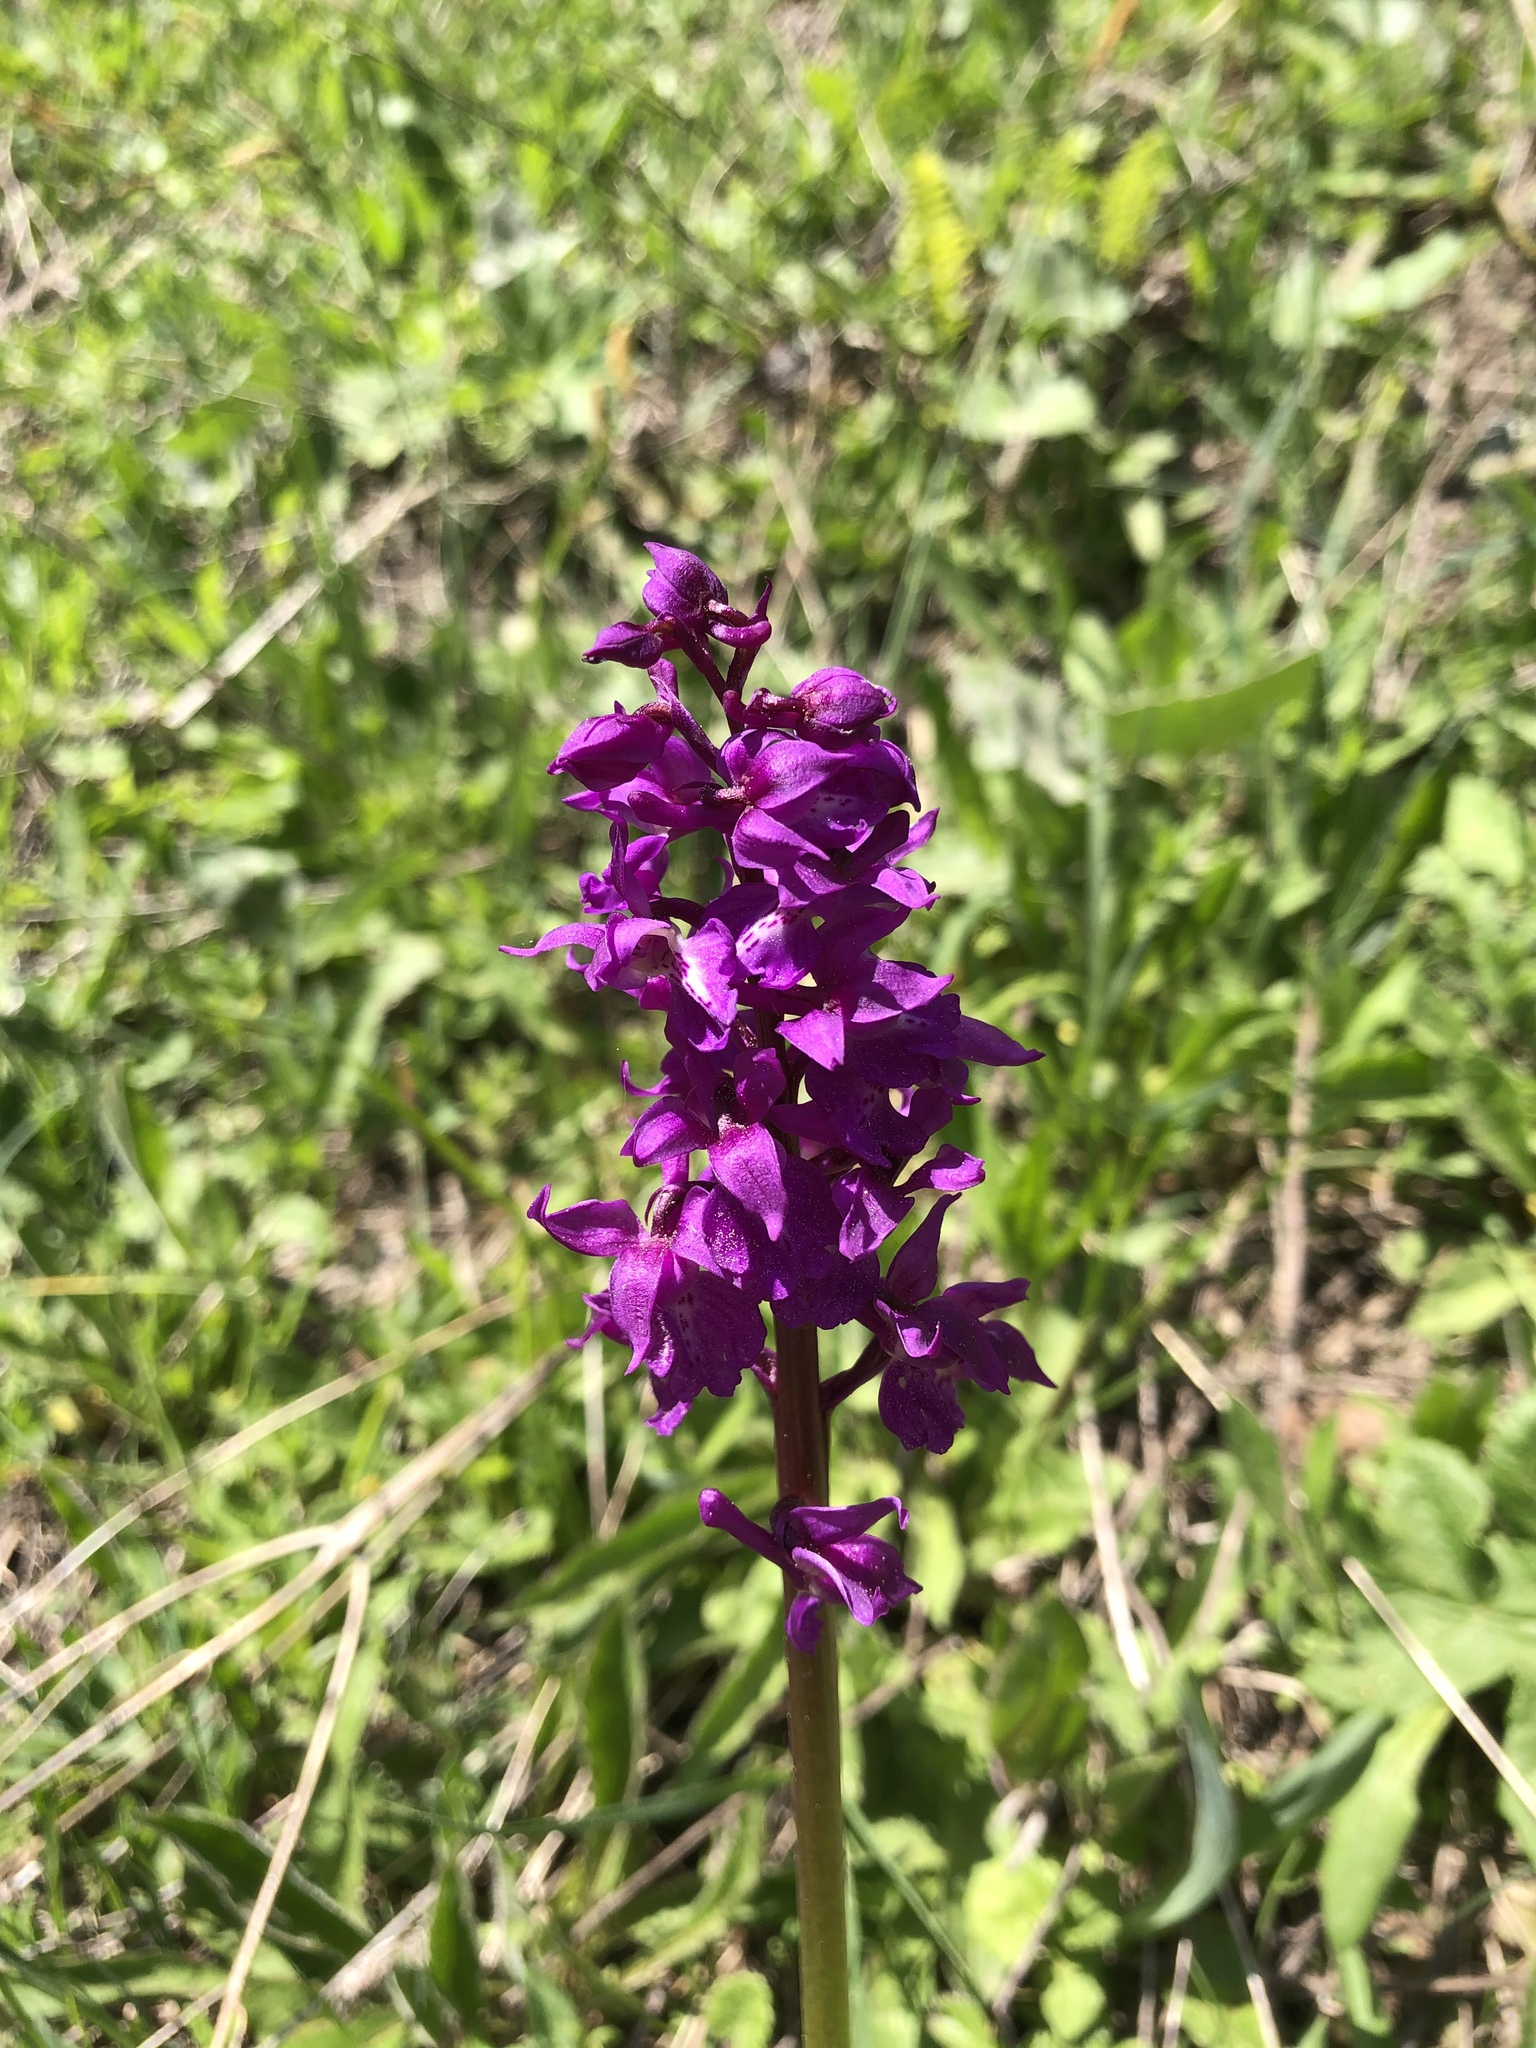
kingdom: Plantae
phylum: Tracheophyta
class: Liliopsida
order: Asparagales
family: Orchidaceae
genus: Orchis
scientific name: Orchis mascula
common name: Early-purple orchid
